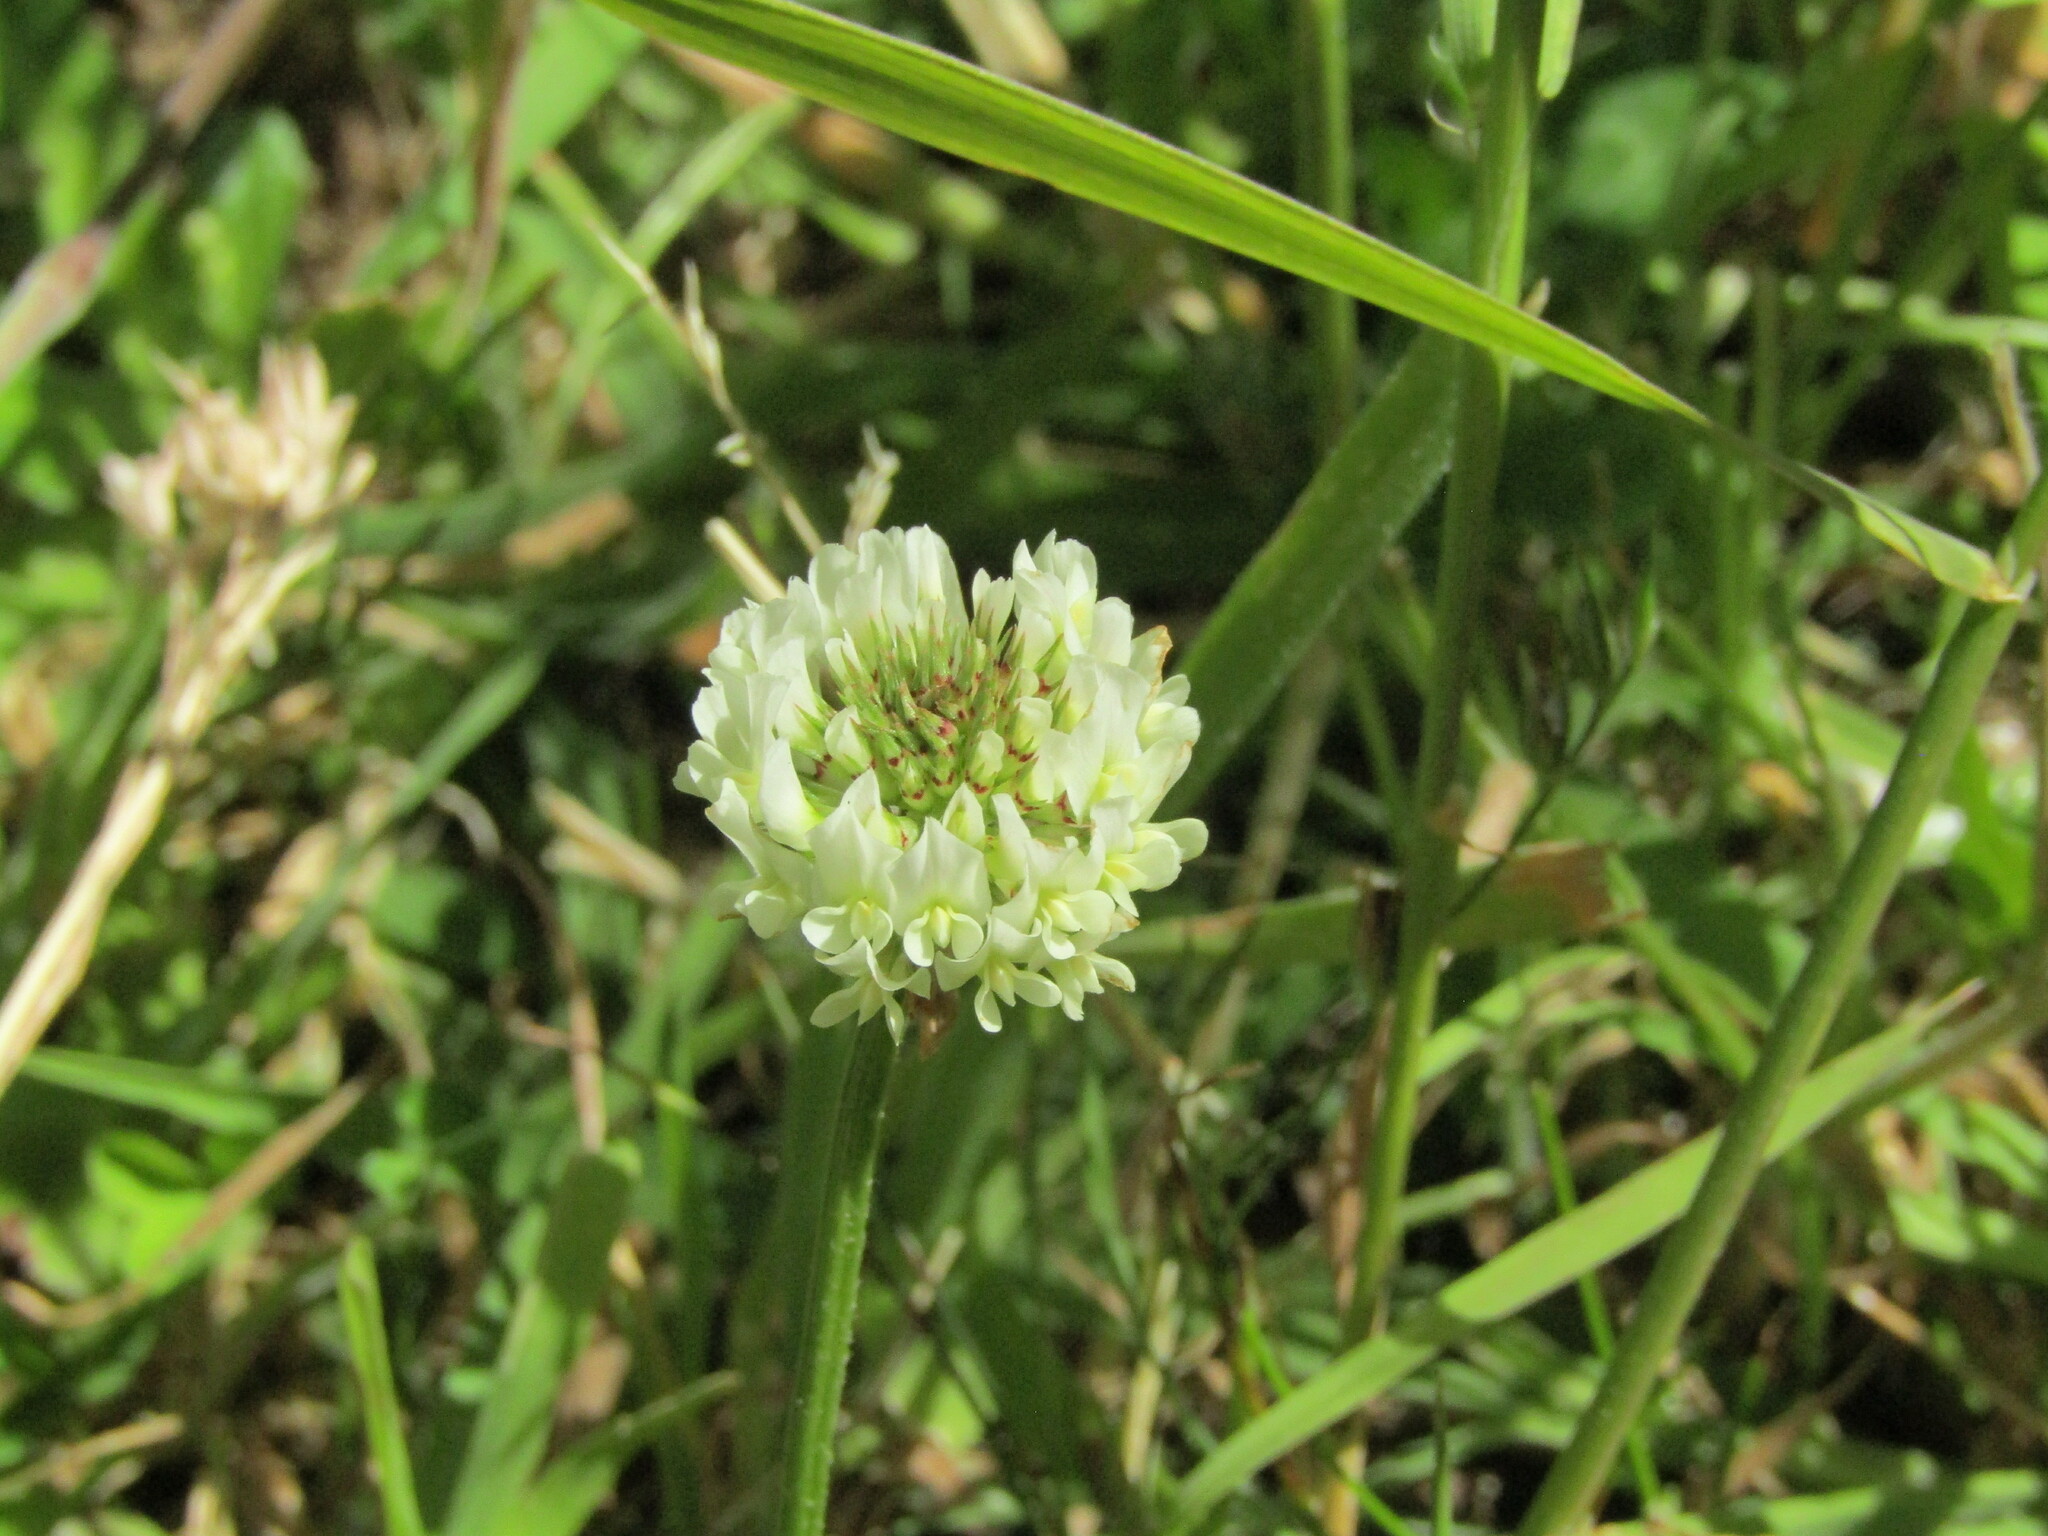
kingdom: Plantae
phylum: Tracheophyta
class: Magnoliopsida
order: Fabales
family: Fabaceae
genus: Trifolium
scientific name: Trifolium repens
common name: White clover
